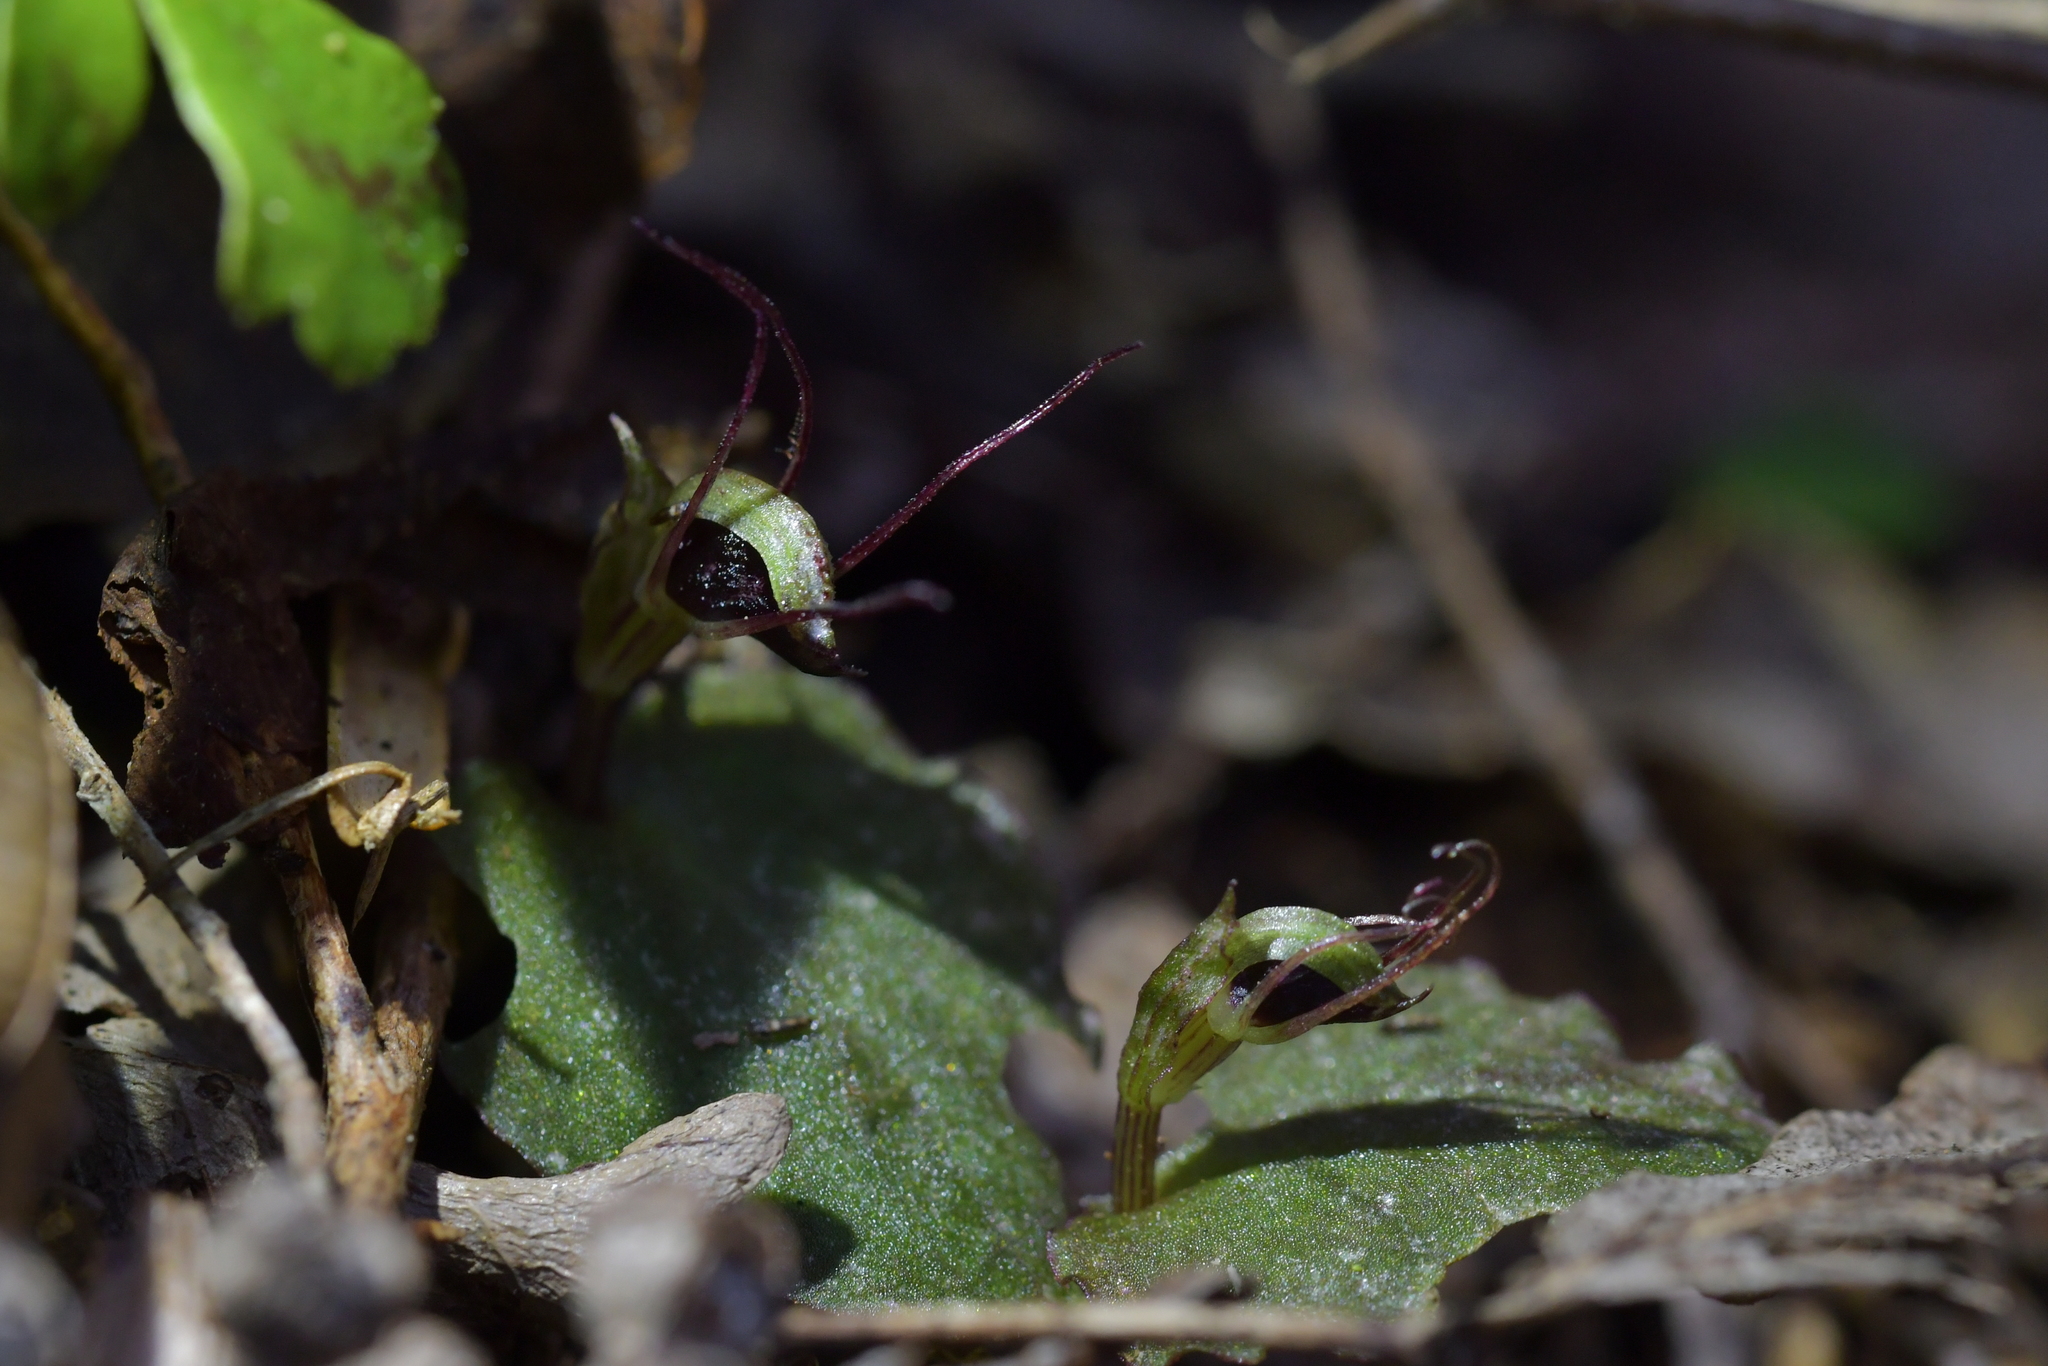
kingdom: Plantae
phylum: Tracheophyta
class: Liliopsida
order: Asparagales
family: Orchidaceae
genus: Corybas
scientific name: Corybas oblongus
